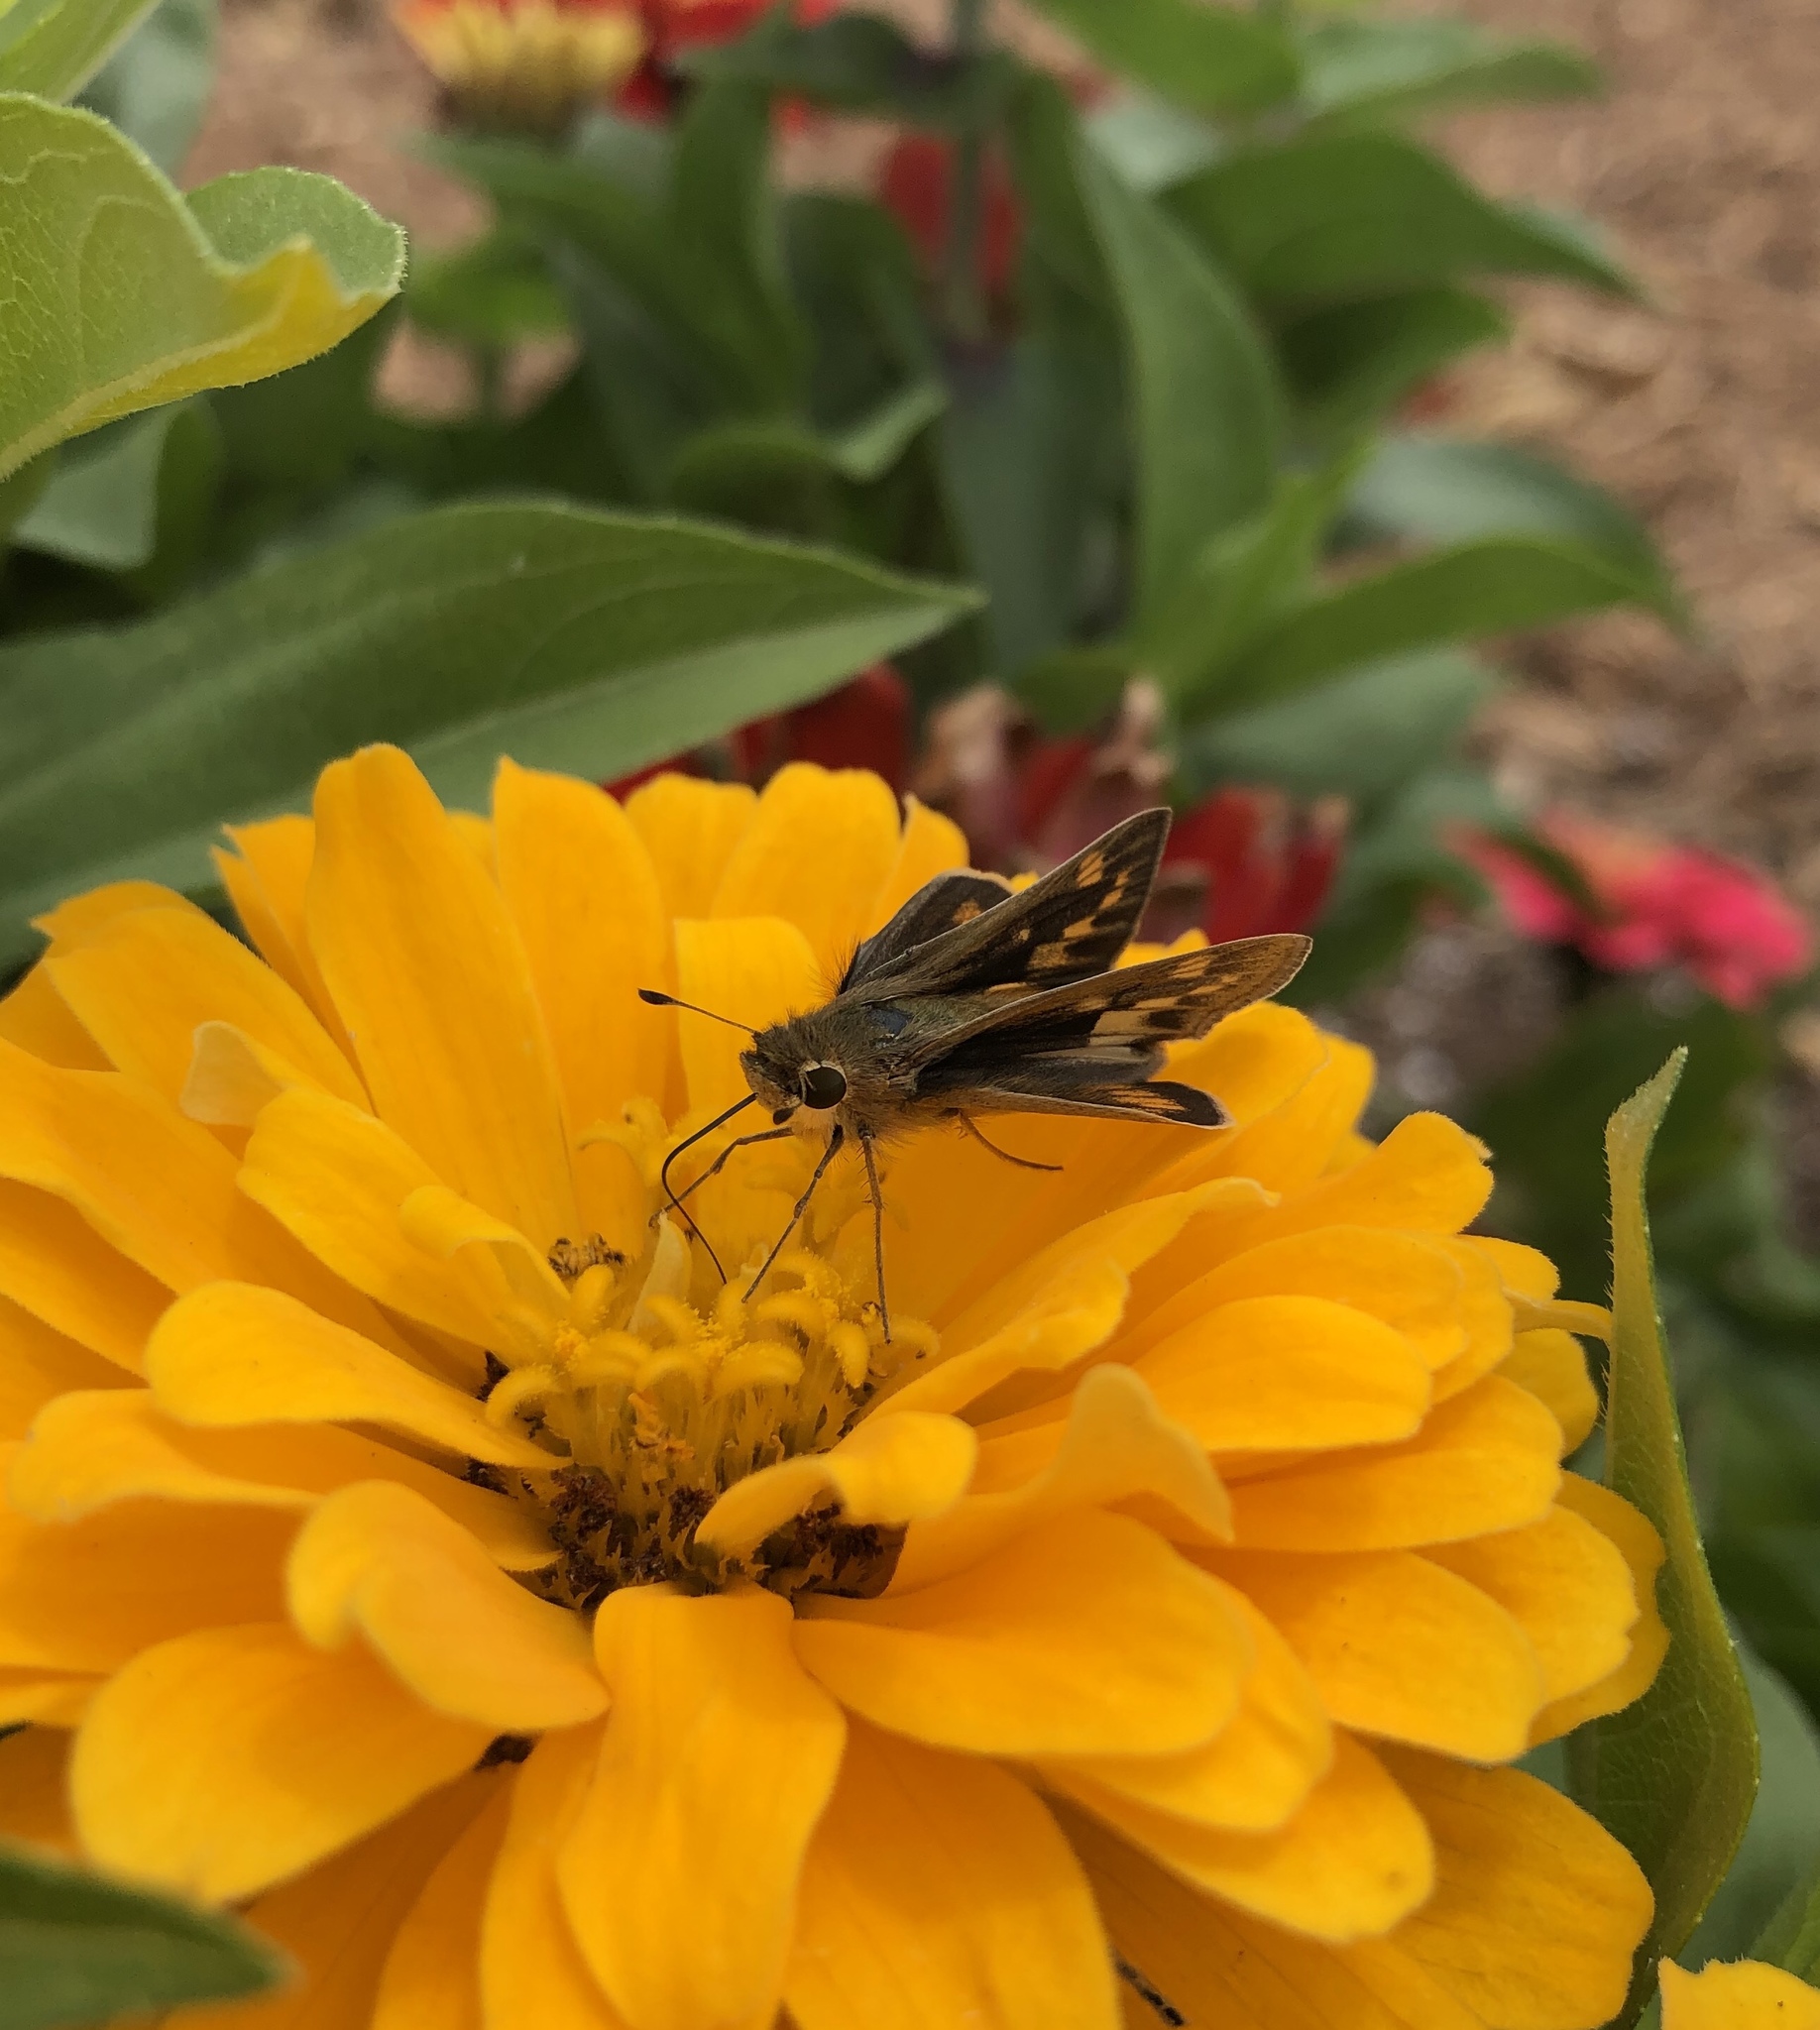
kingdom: Animalia
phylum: Arthropoda
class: Insecta
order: Lepidoptera
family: Hesperiidae
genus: Hylephila
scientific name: Hylephila phyleus
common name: Fiery skipper
